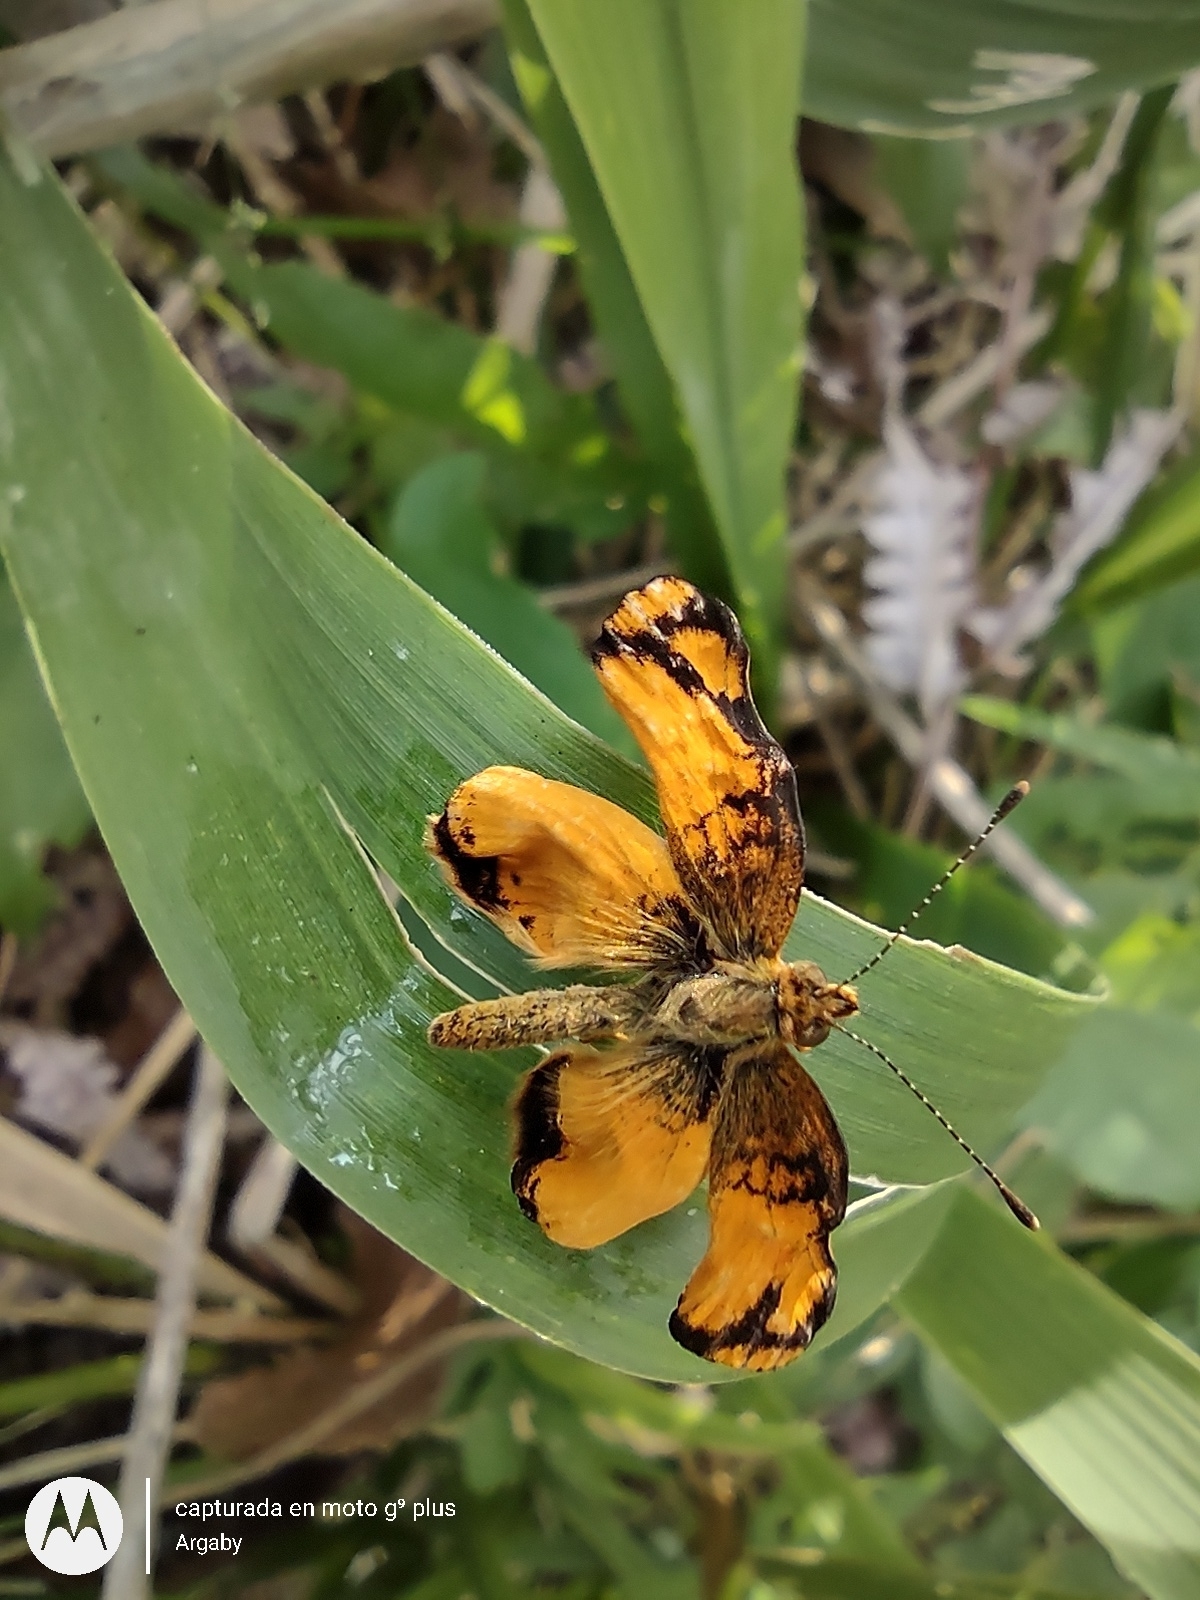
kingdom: Animalia
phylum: Arthropoda
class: Insecta
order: Lepidoptera
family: Nymphalidae
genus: Tegosa
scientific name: Tegosa claudina
